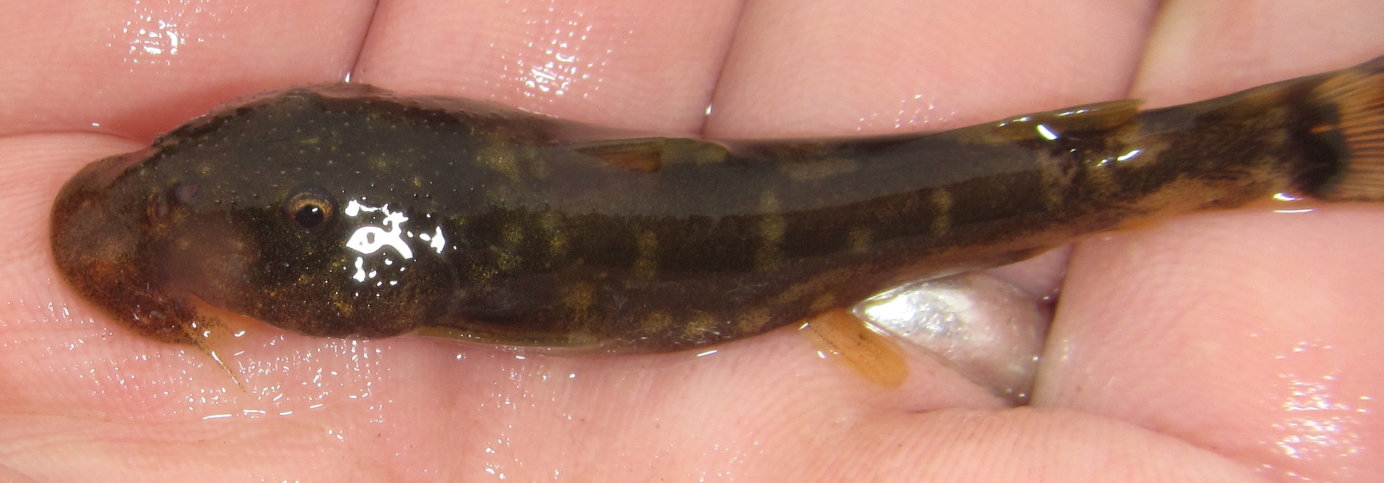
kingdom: Animalia
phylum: Chordata
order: Siluriformes
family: Mochokidae
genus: Chiloglanis
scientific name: Chiloglanis emarginatus
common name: Phongolo catlet
